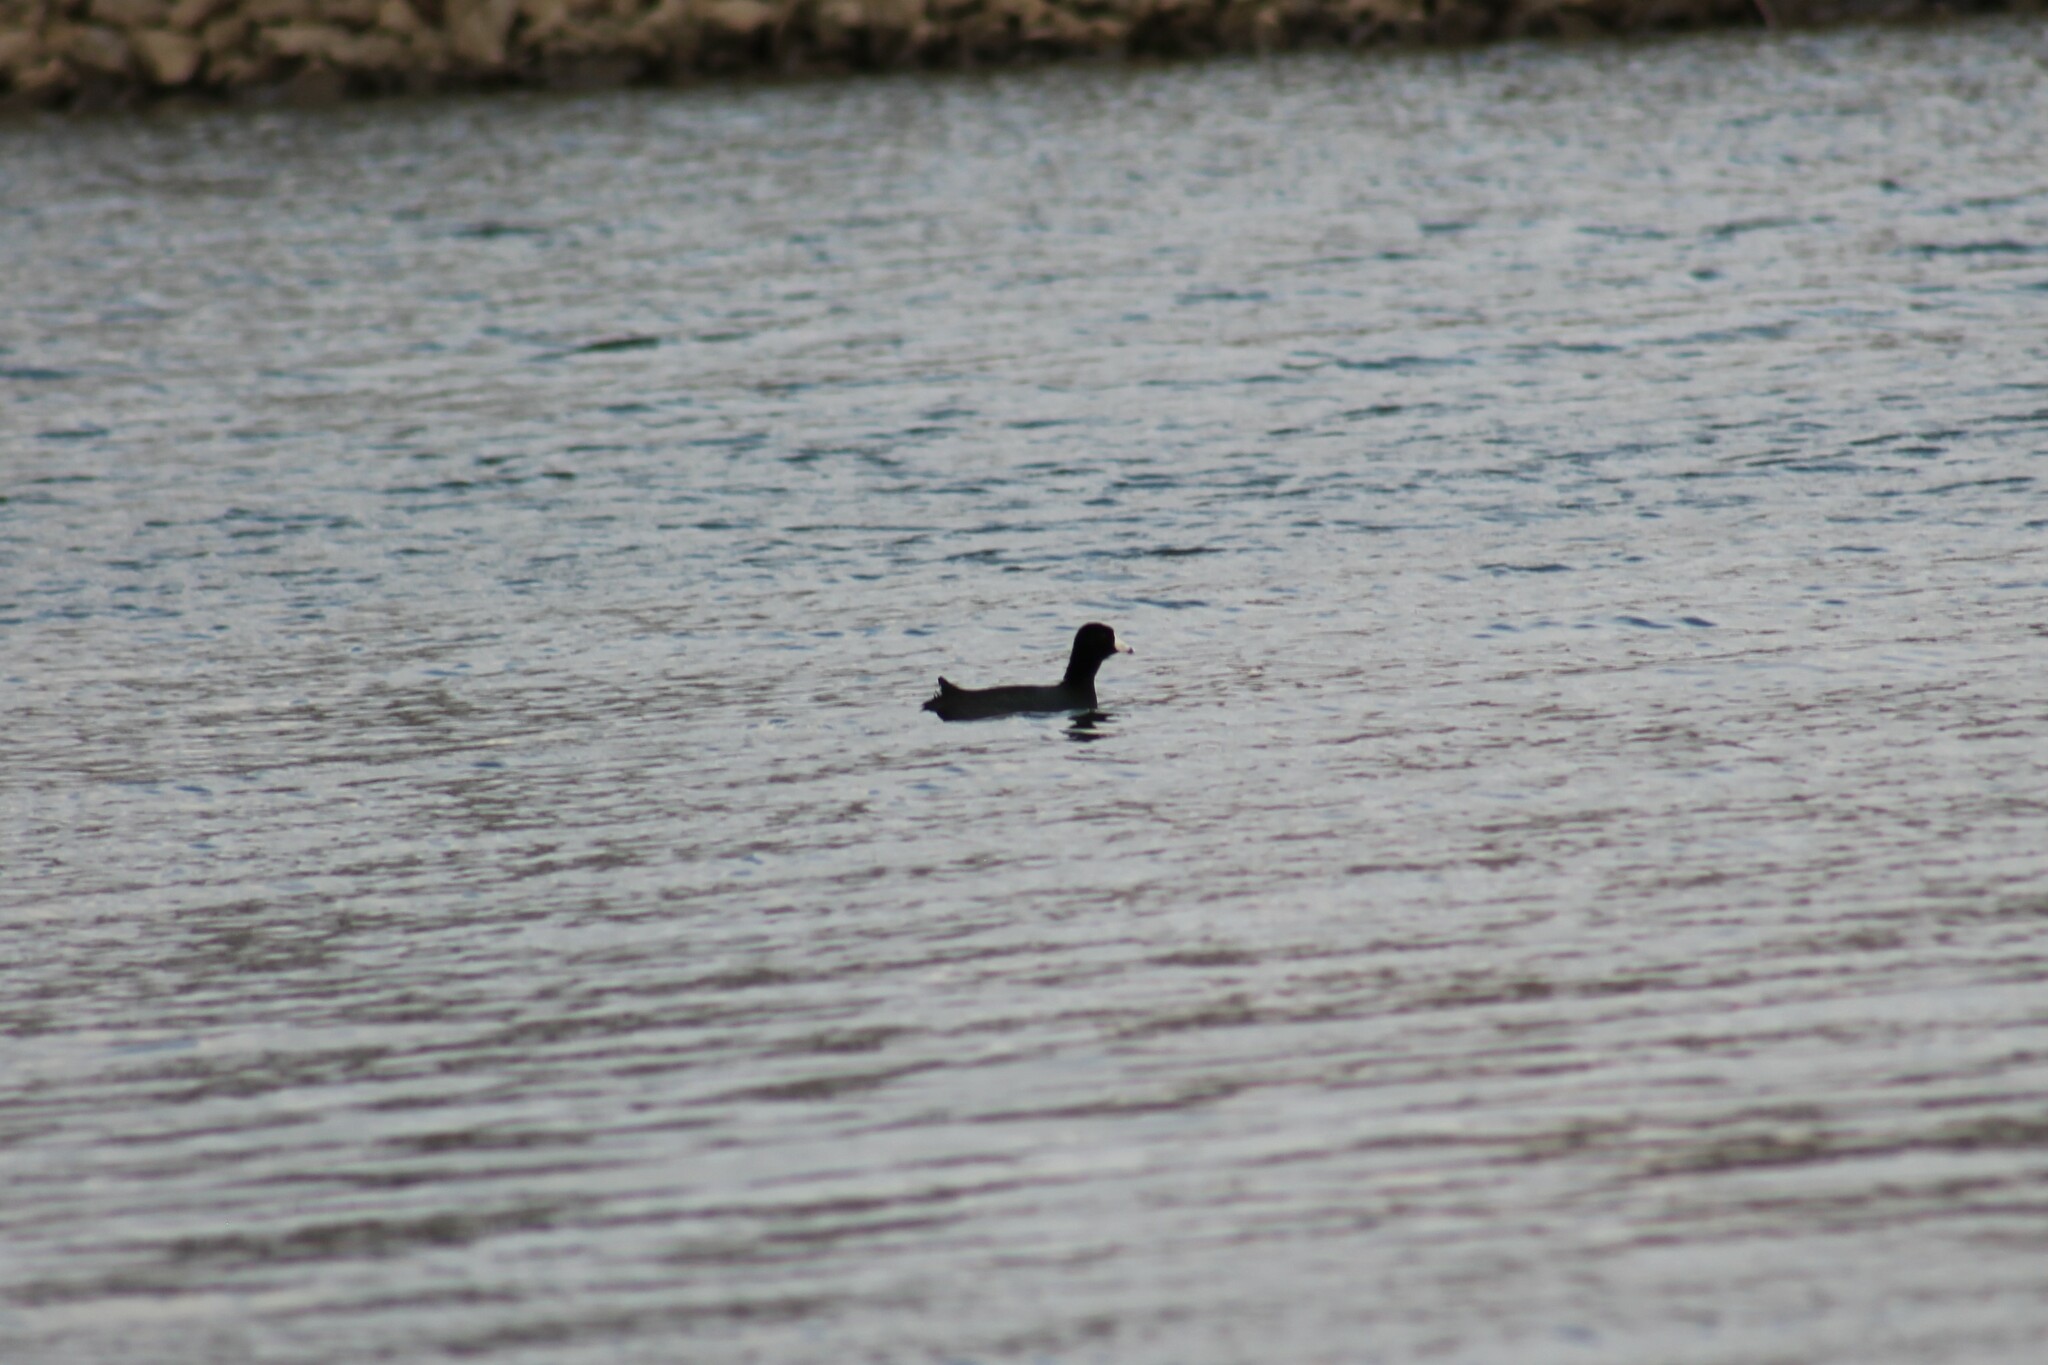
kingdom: Animalia
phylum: Chordata
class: Aves
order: Gruiformes
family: Rallidae
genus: Fulica
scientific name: Fulica americana
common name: American coot
